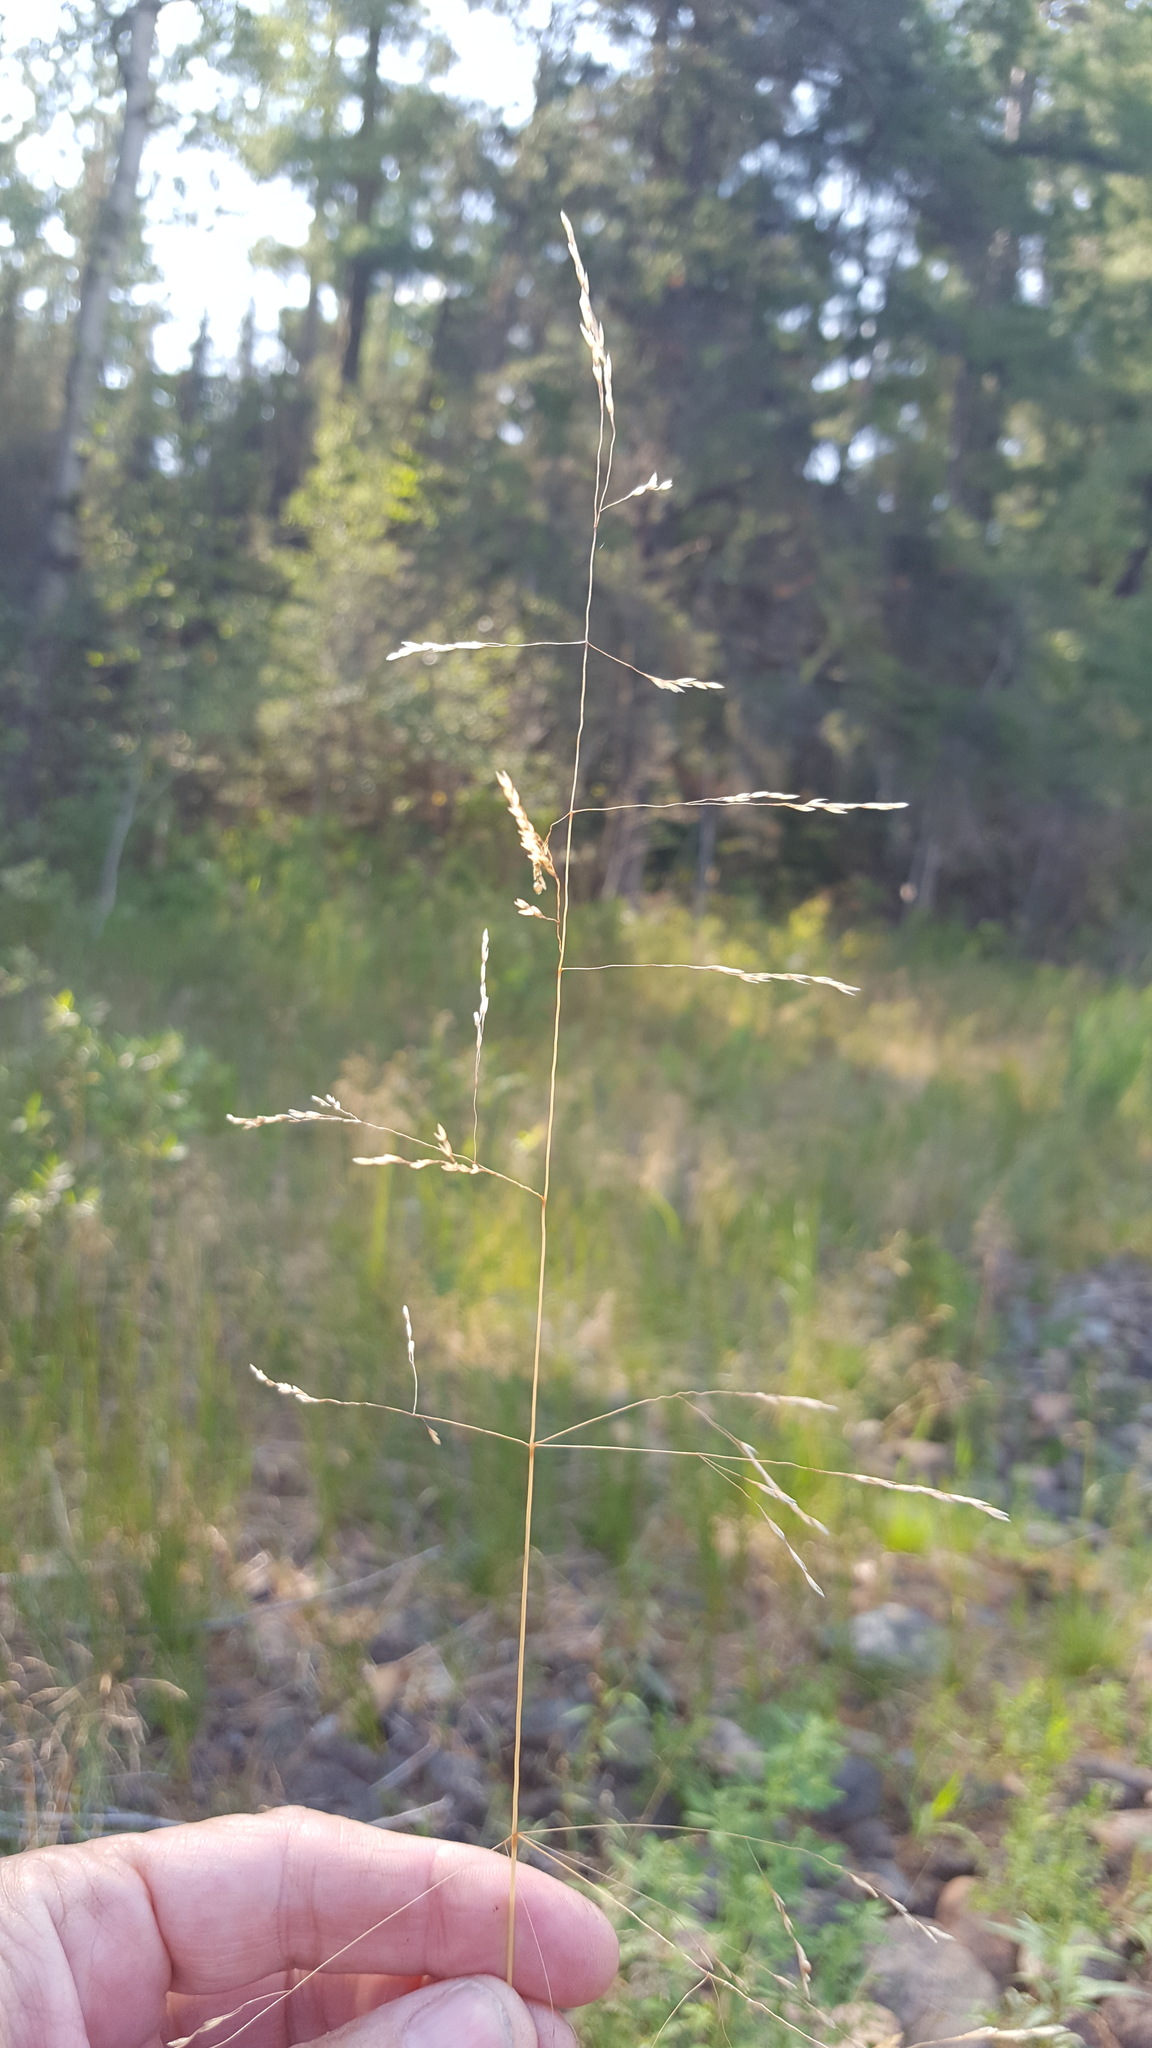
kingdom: Plantae
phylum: Tracheophyta
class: Liliopsida
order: Poales
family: Poaceae
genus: Deschampsia
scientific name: Deschampsia cespitosa
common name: Tufted hair-grass
